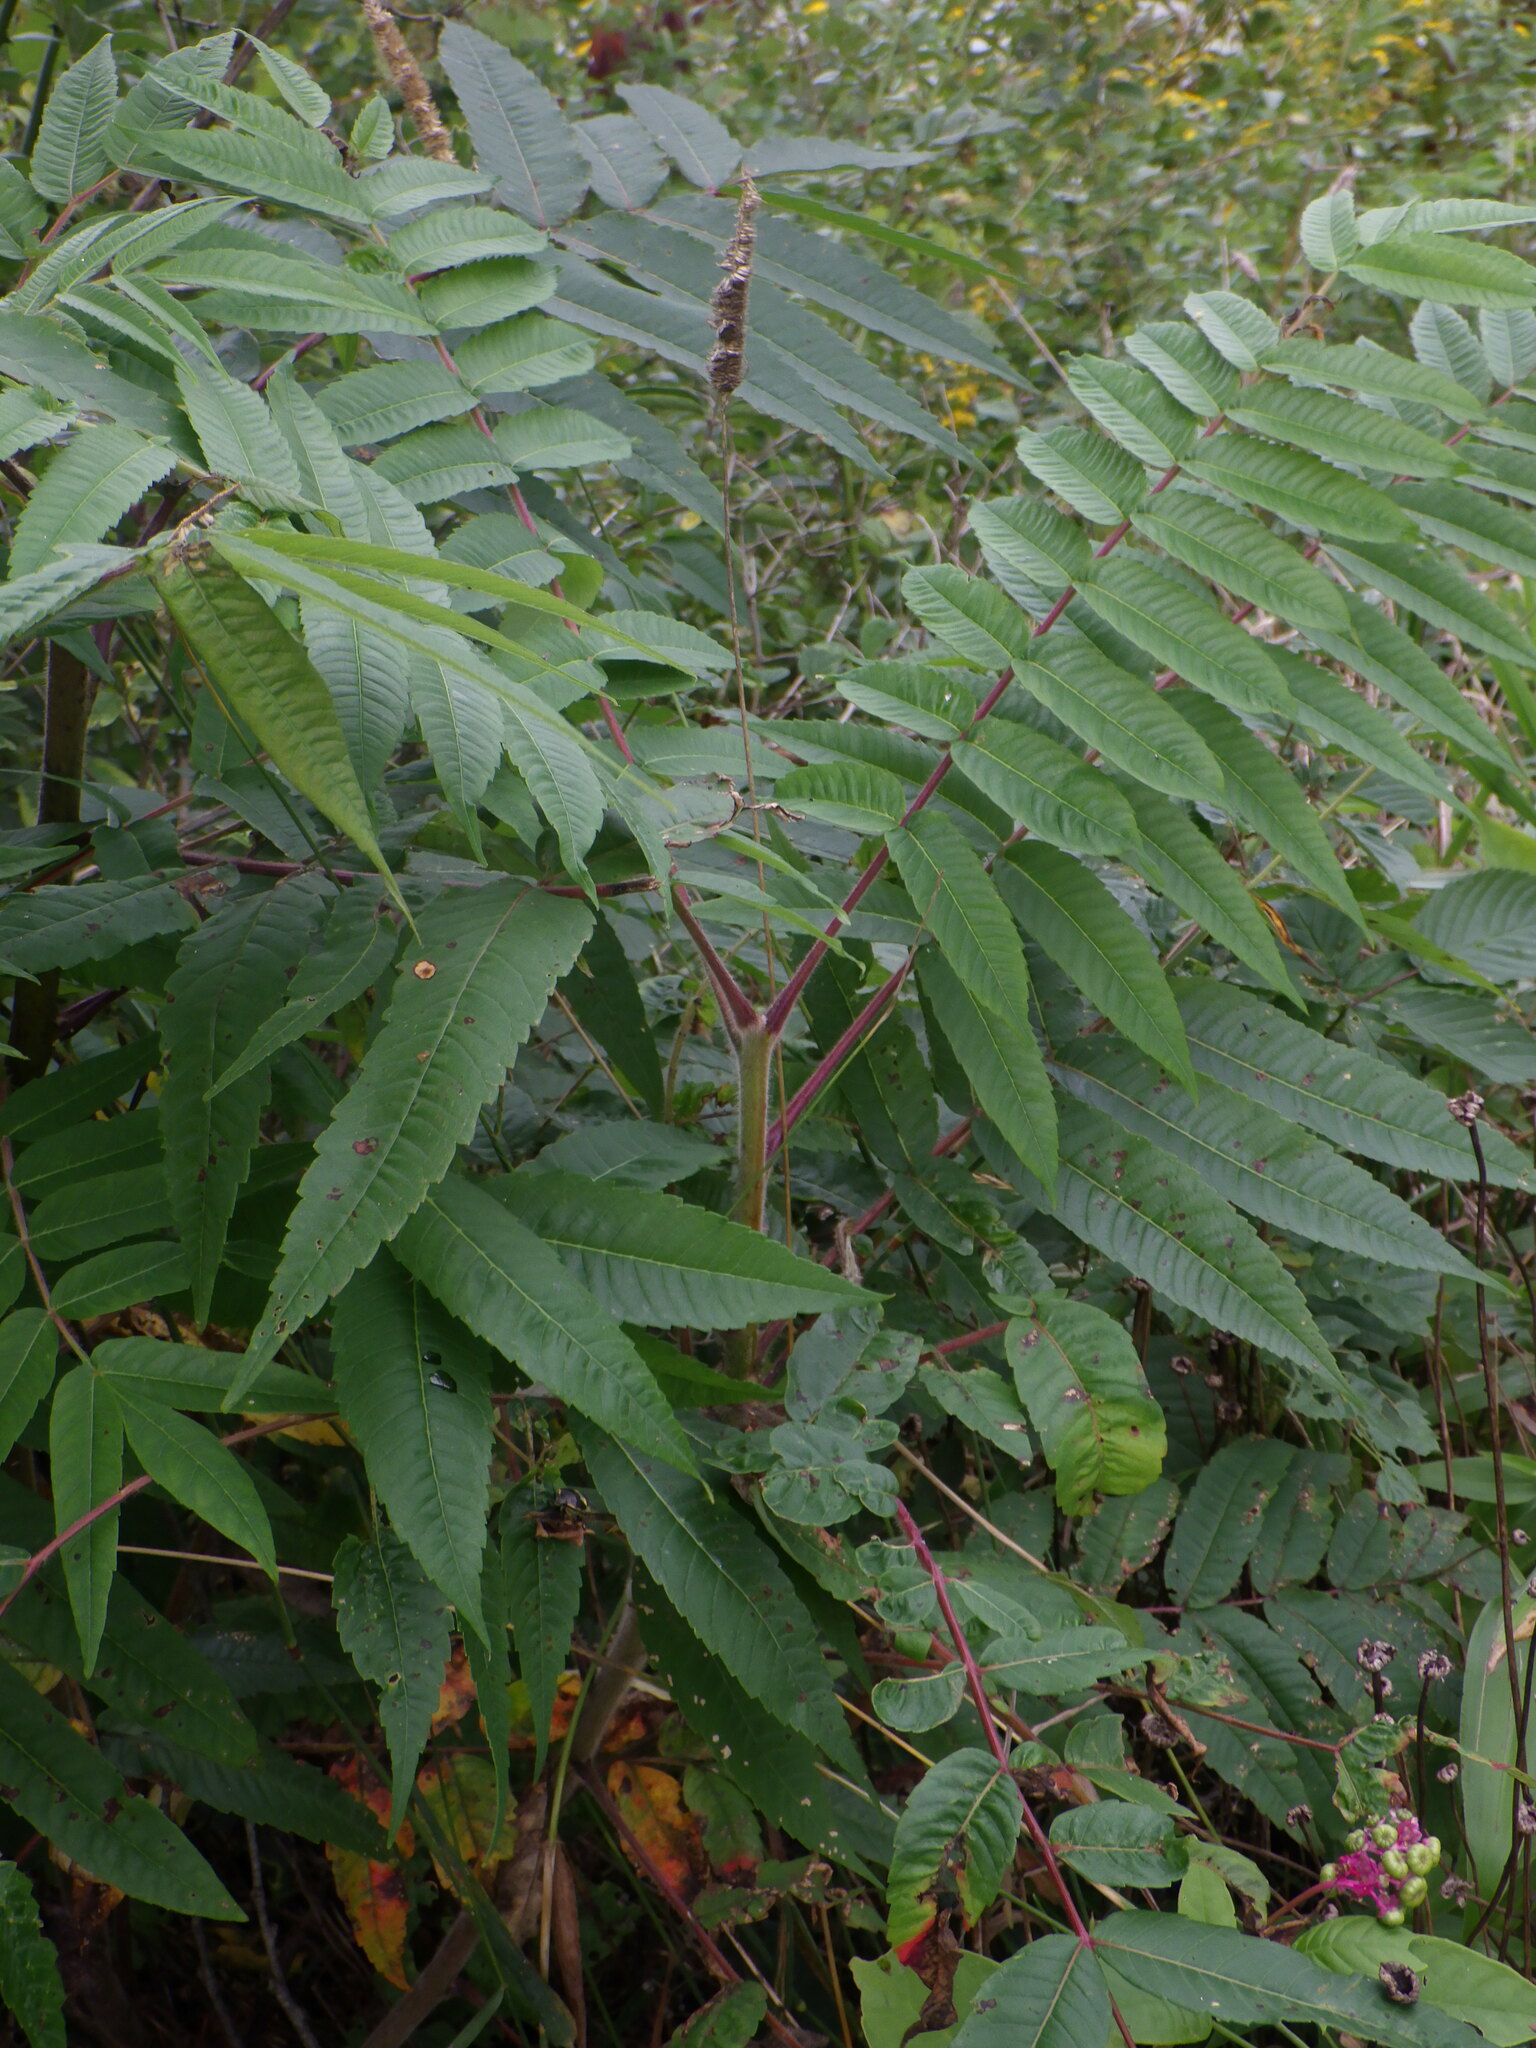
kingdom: Plantae
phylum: Tracheophyta
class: Magnoliopsida
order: Sapindales
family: Anacardiaceae
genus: Rhus
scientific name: Rhus typhina
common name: Staghorn sumac
